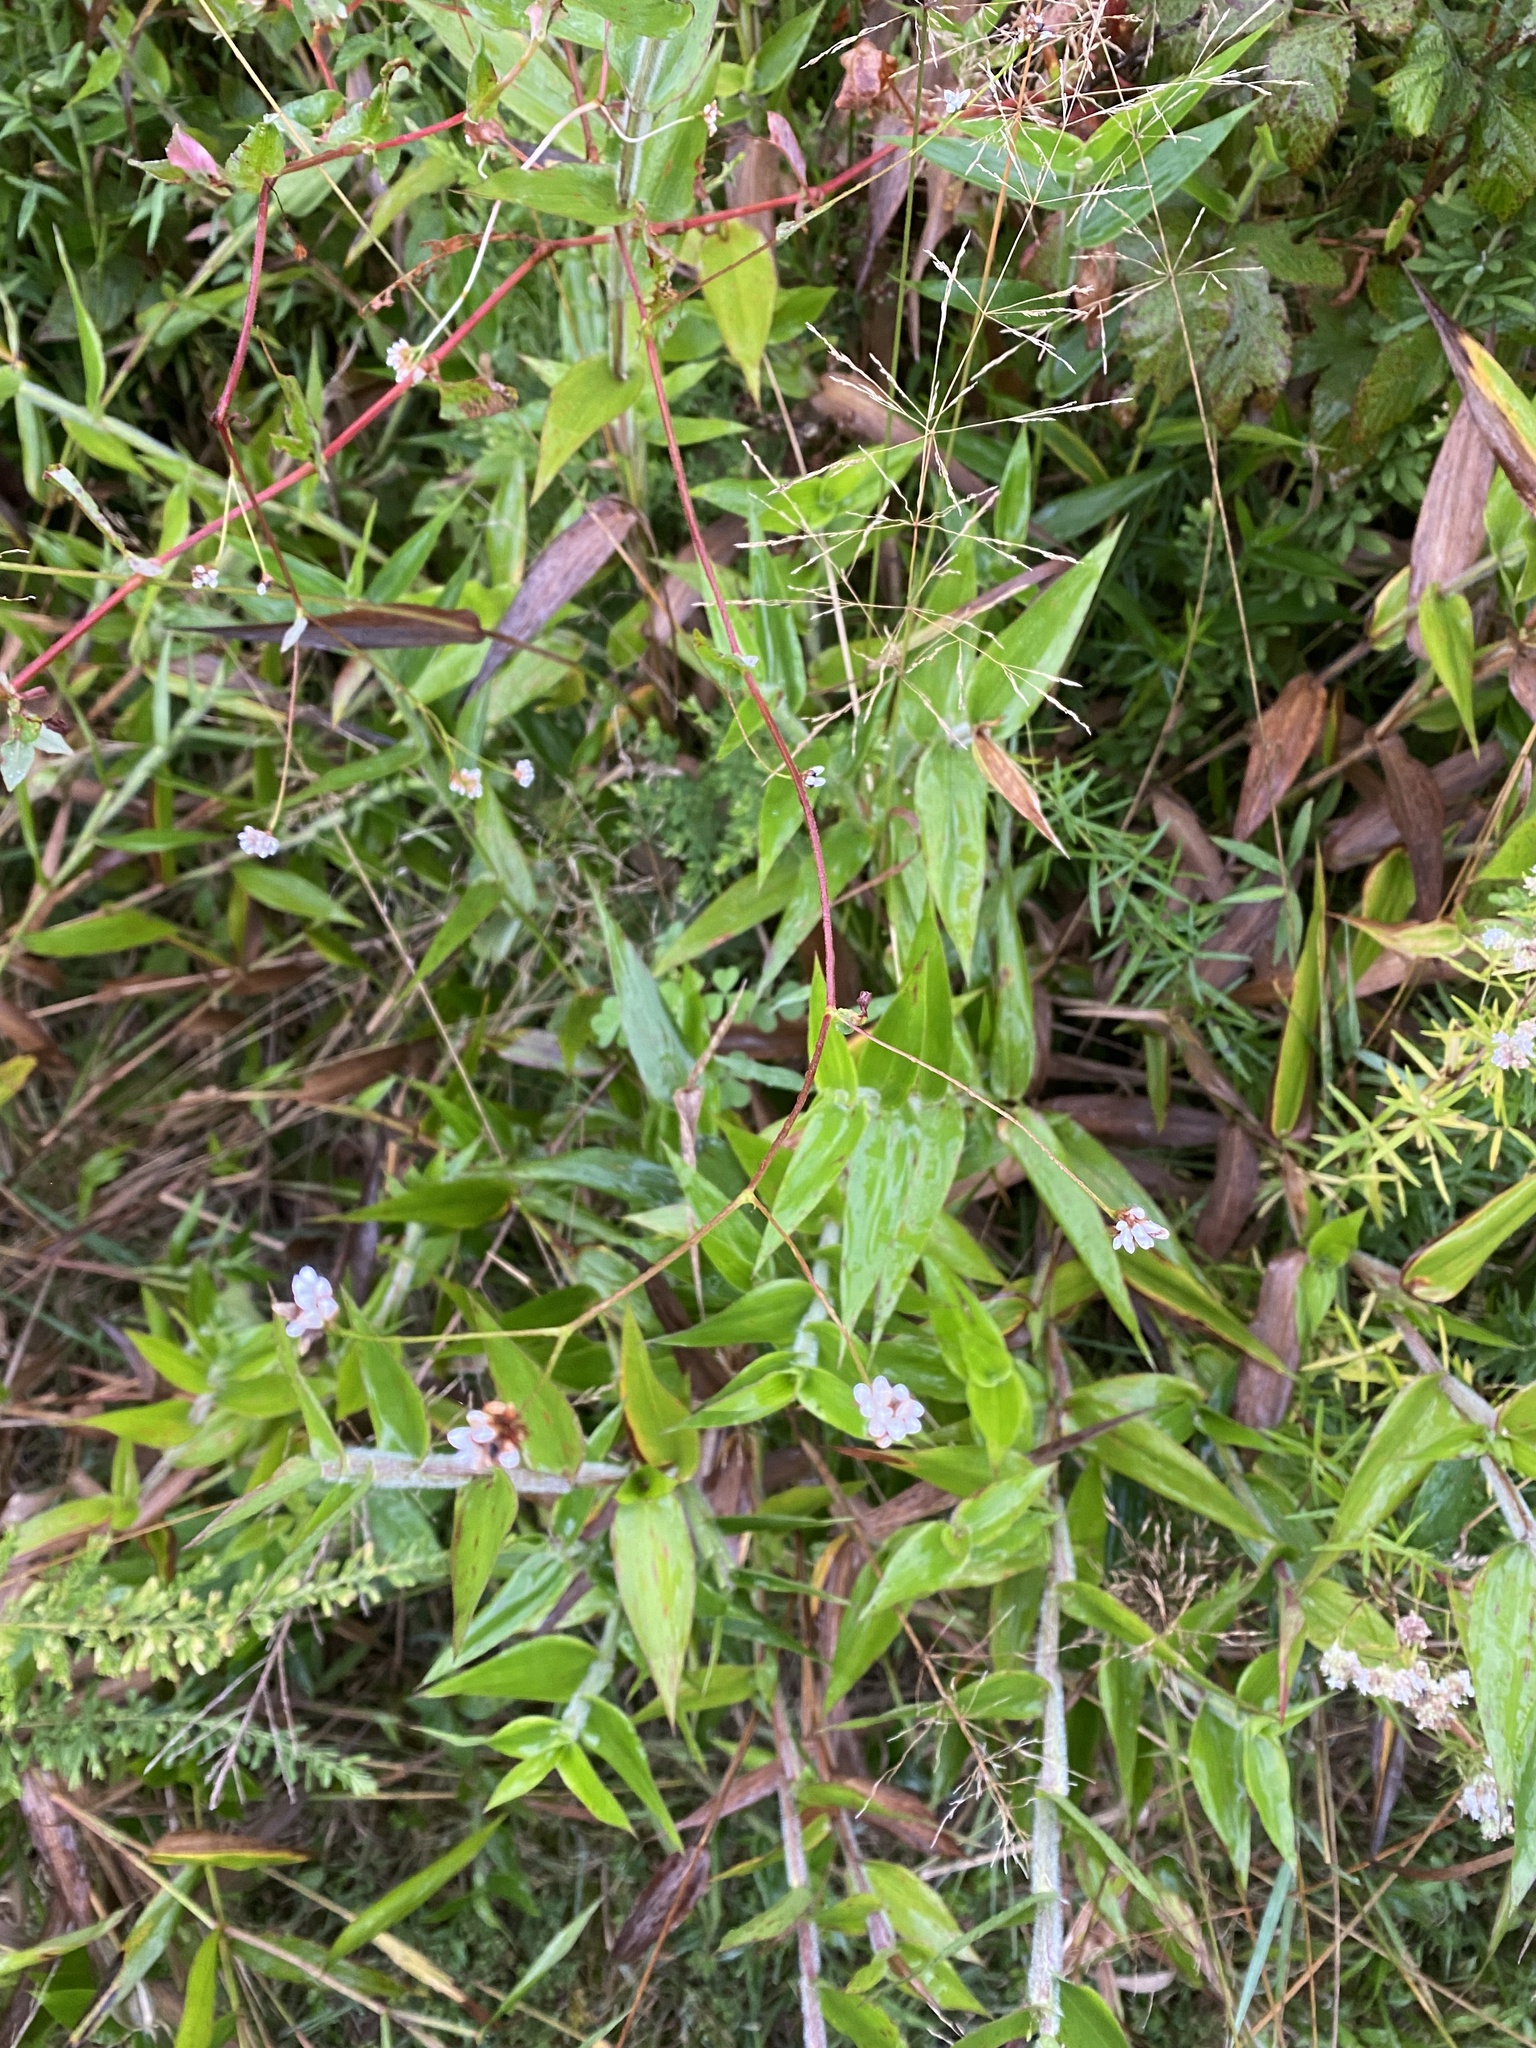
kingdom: Plantae
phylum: Tracheophyta
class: Magnoliopsida
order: Caryophyllales
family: Polygonaceae
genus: Persicaria
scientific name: Persicaria sagittata
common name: American tearthumb
